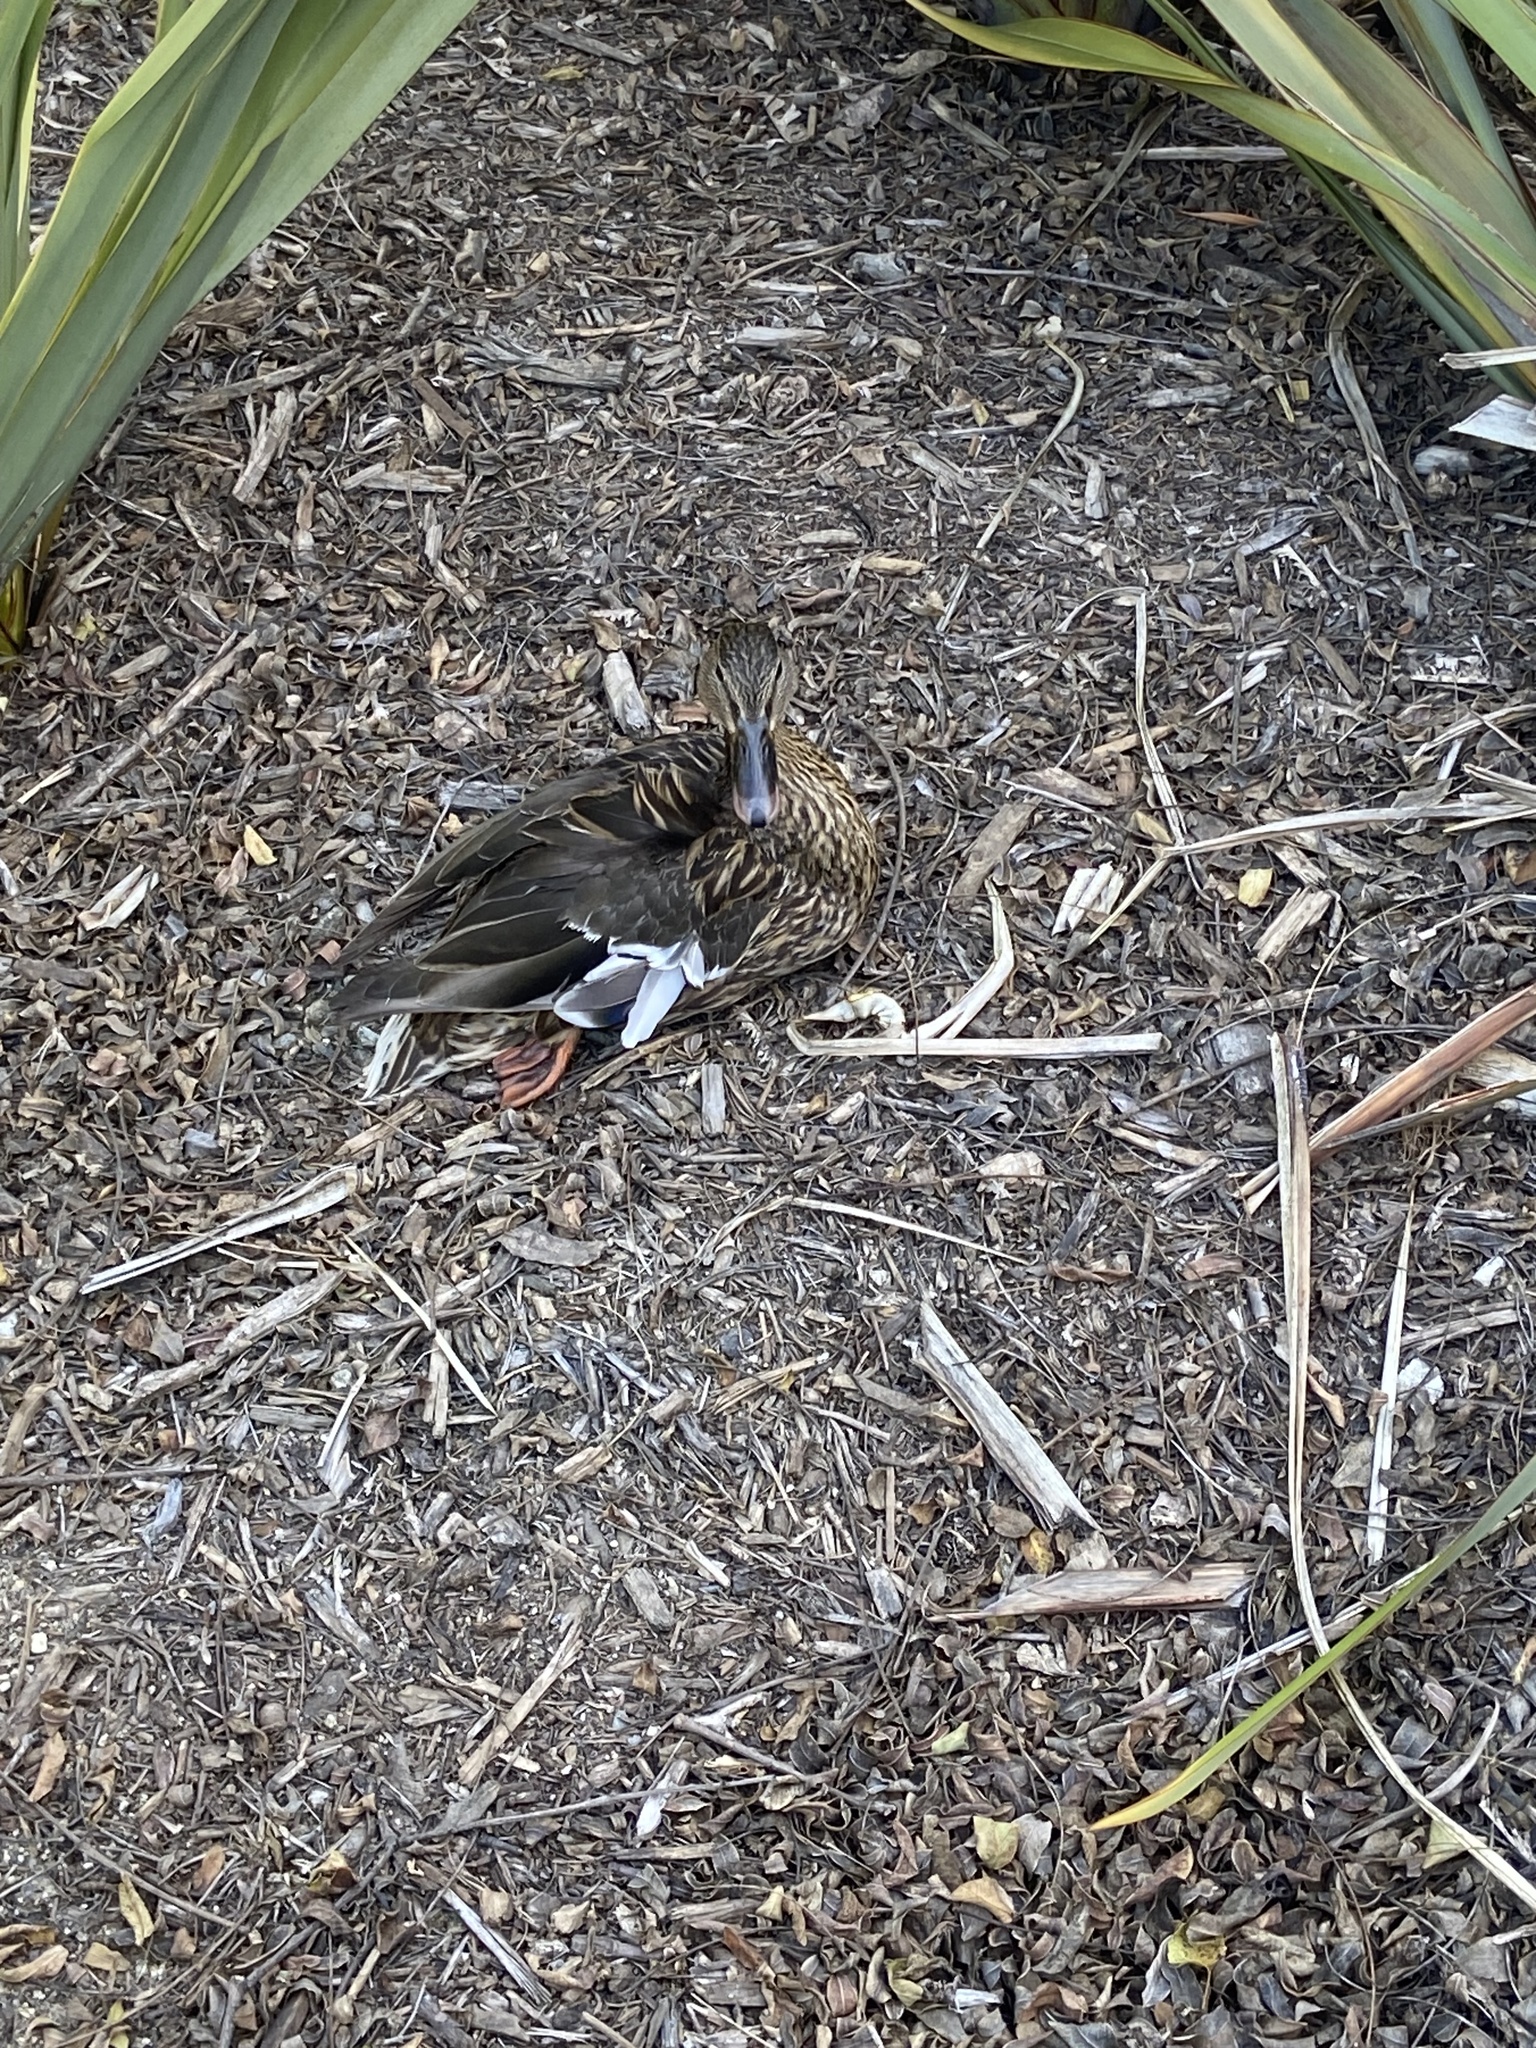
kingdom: Animalia
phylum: Chordata
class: Aves
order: Anseriformes
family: Anatidae
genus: Anas
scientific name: Anas platyrhynchos
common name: Mallard
